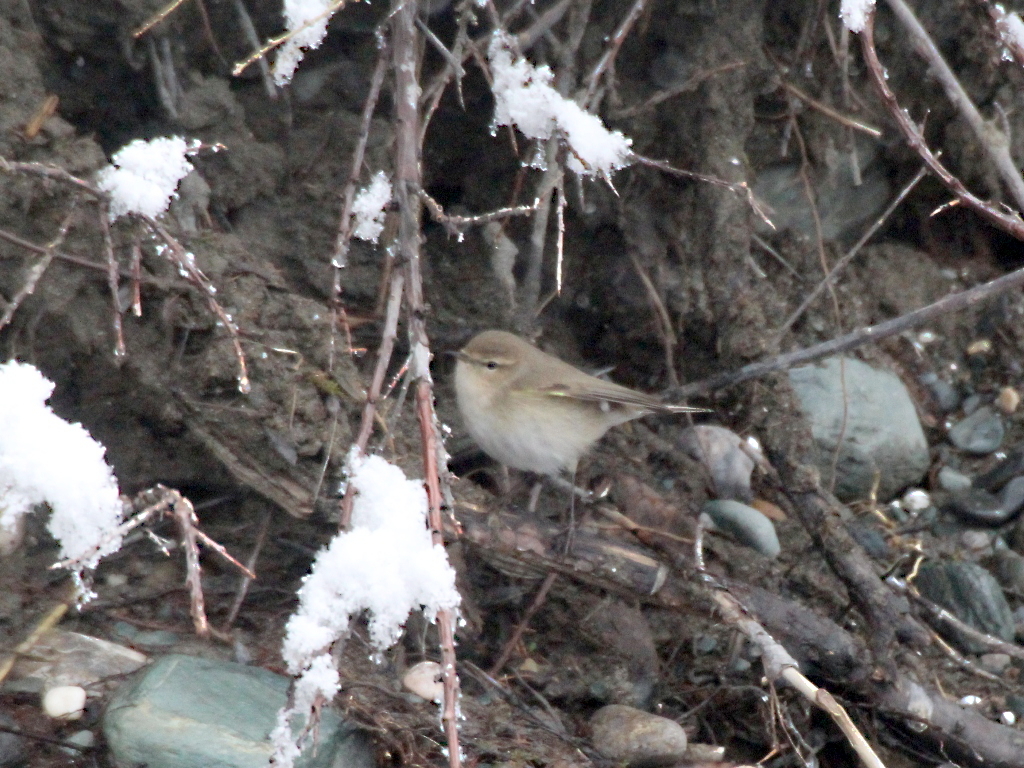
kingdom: Animalia
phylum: Chordata
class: Aves
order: Passeriformes
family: Phylloscopidae
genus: Phylloscopus
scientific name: Phylloscopus collybita
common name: Common chiffchaff
